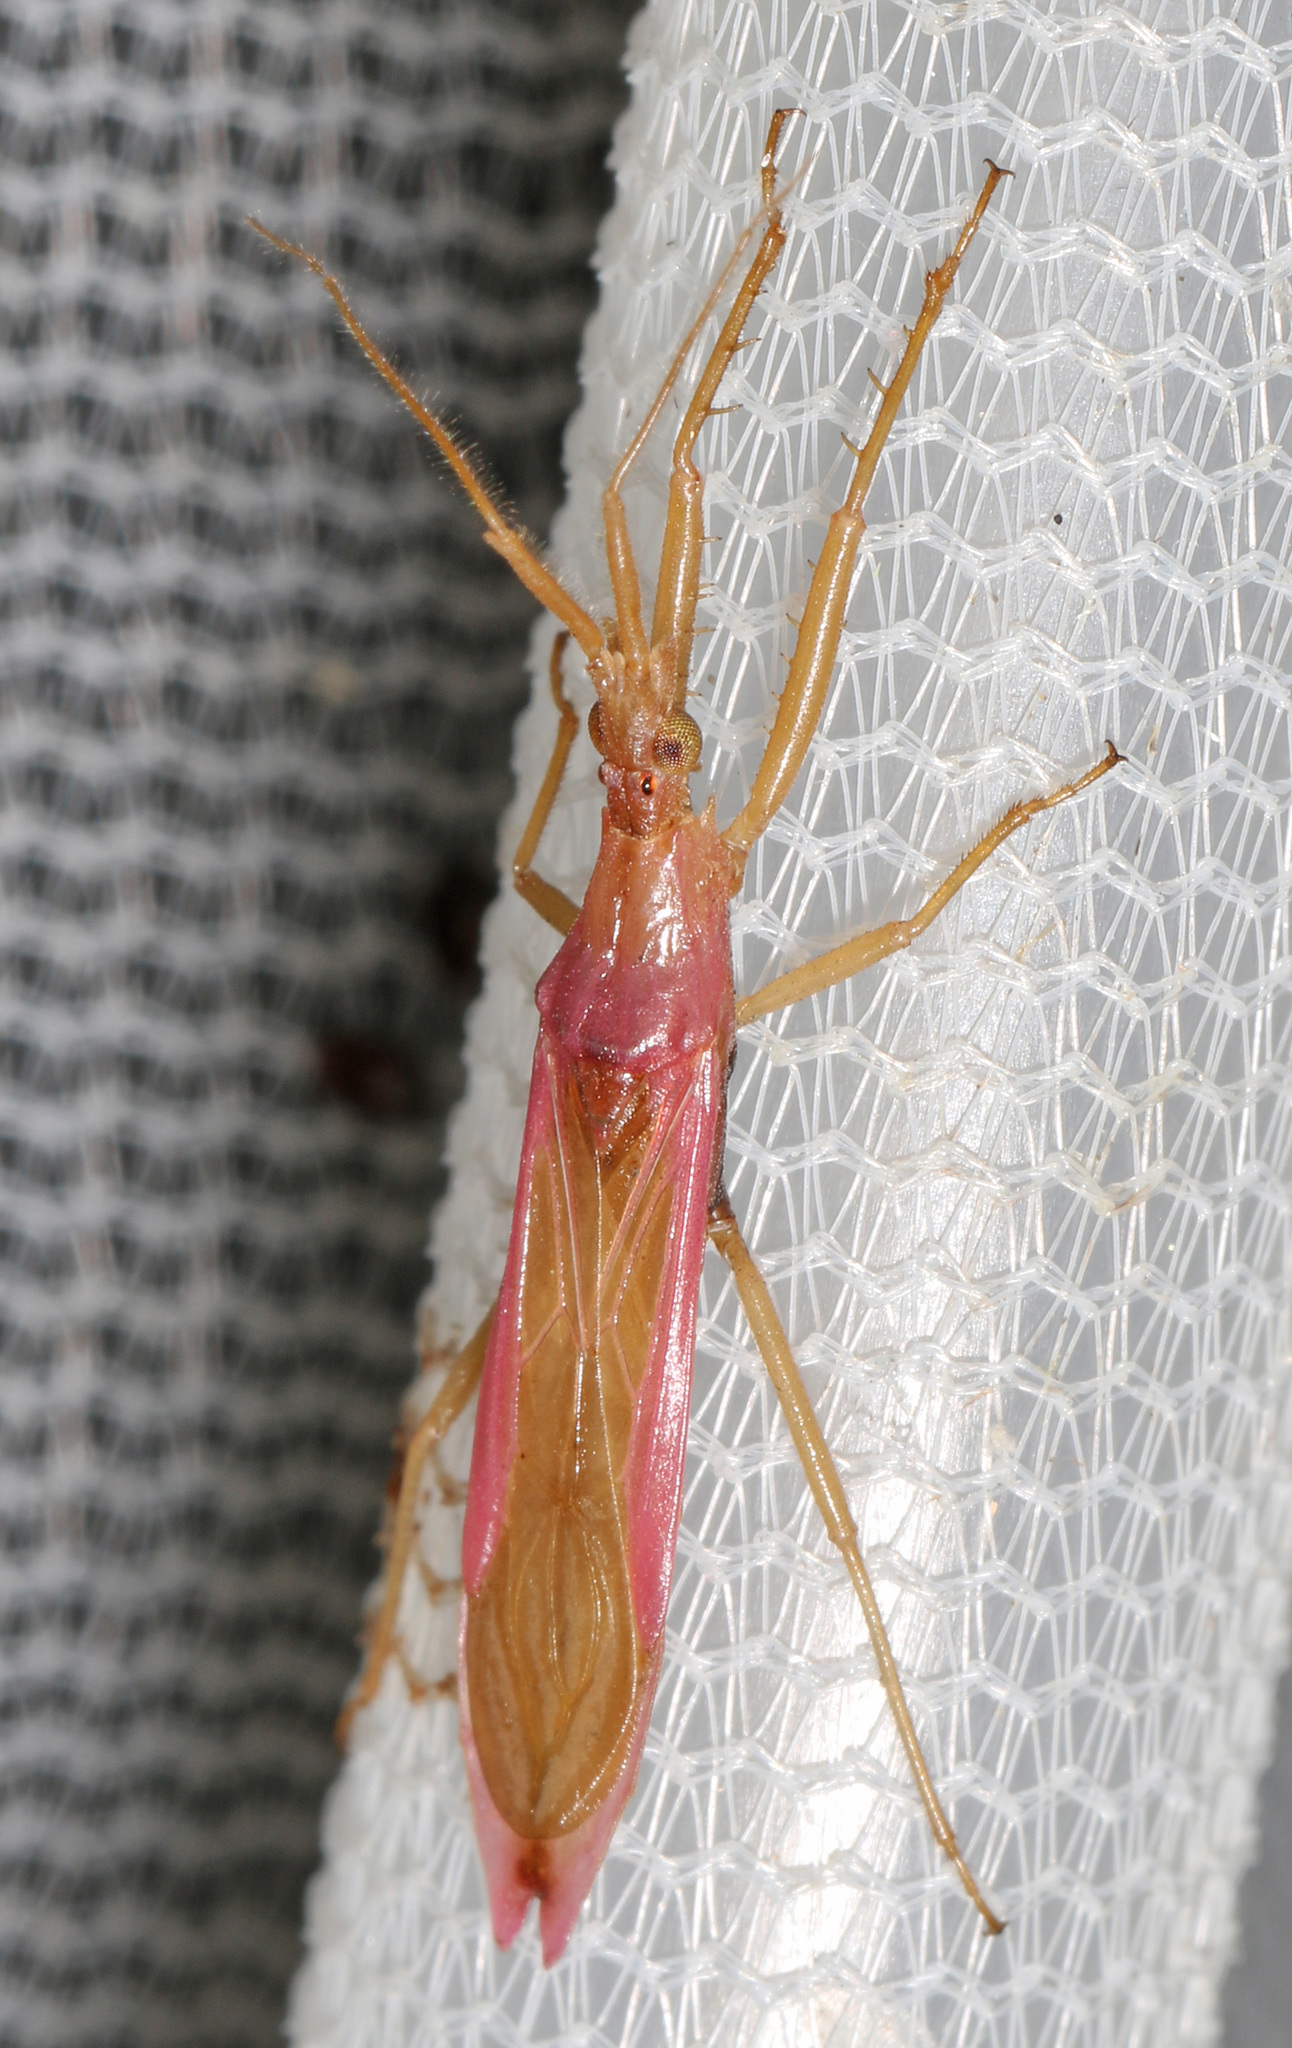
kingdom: Animalia
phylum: Arthropoda
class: Insecta
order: Hemiptera
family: Reduviidae
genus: Pnirontis
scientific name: Pnirontis languida
